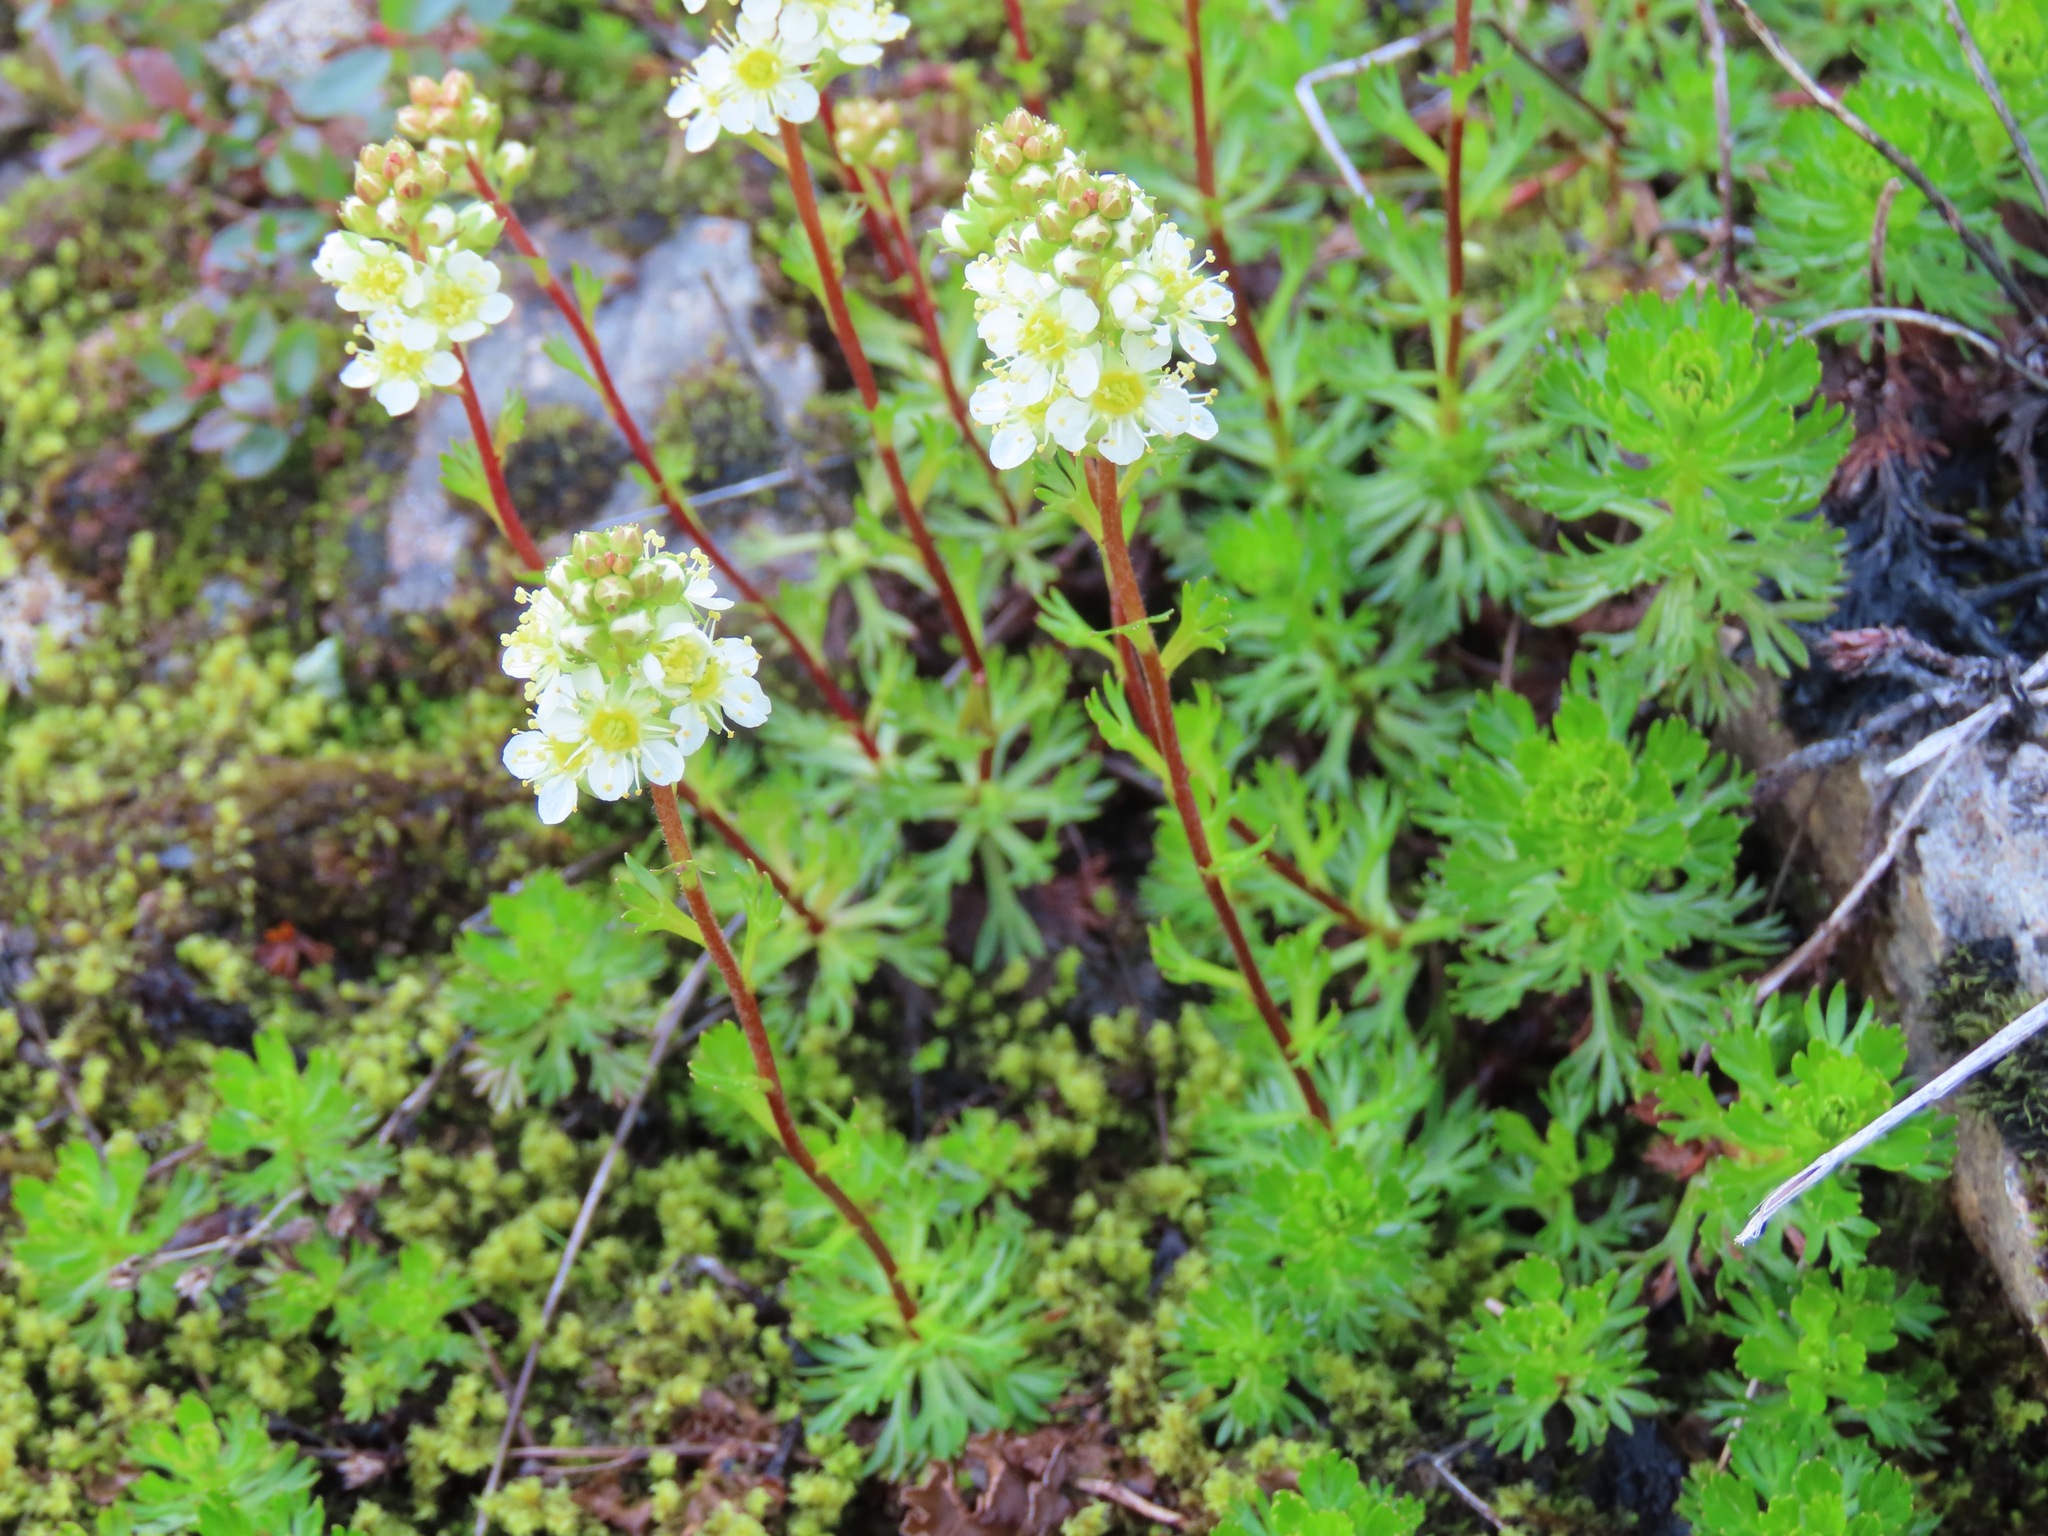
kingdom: Plantae
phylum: Tracheophyta
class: Magnoliopsida
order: Rosales
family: Rosaceae
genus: Luetkea
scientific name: Luetkea pectinata
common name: Partridgefoot
